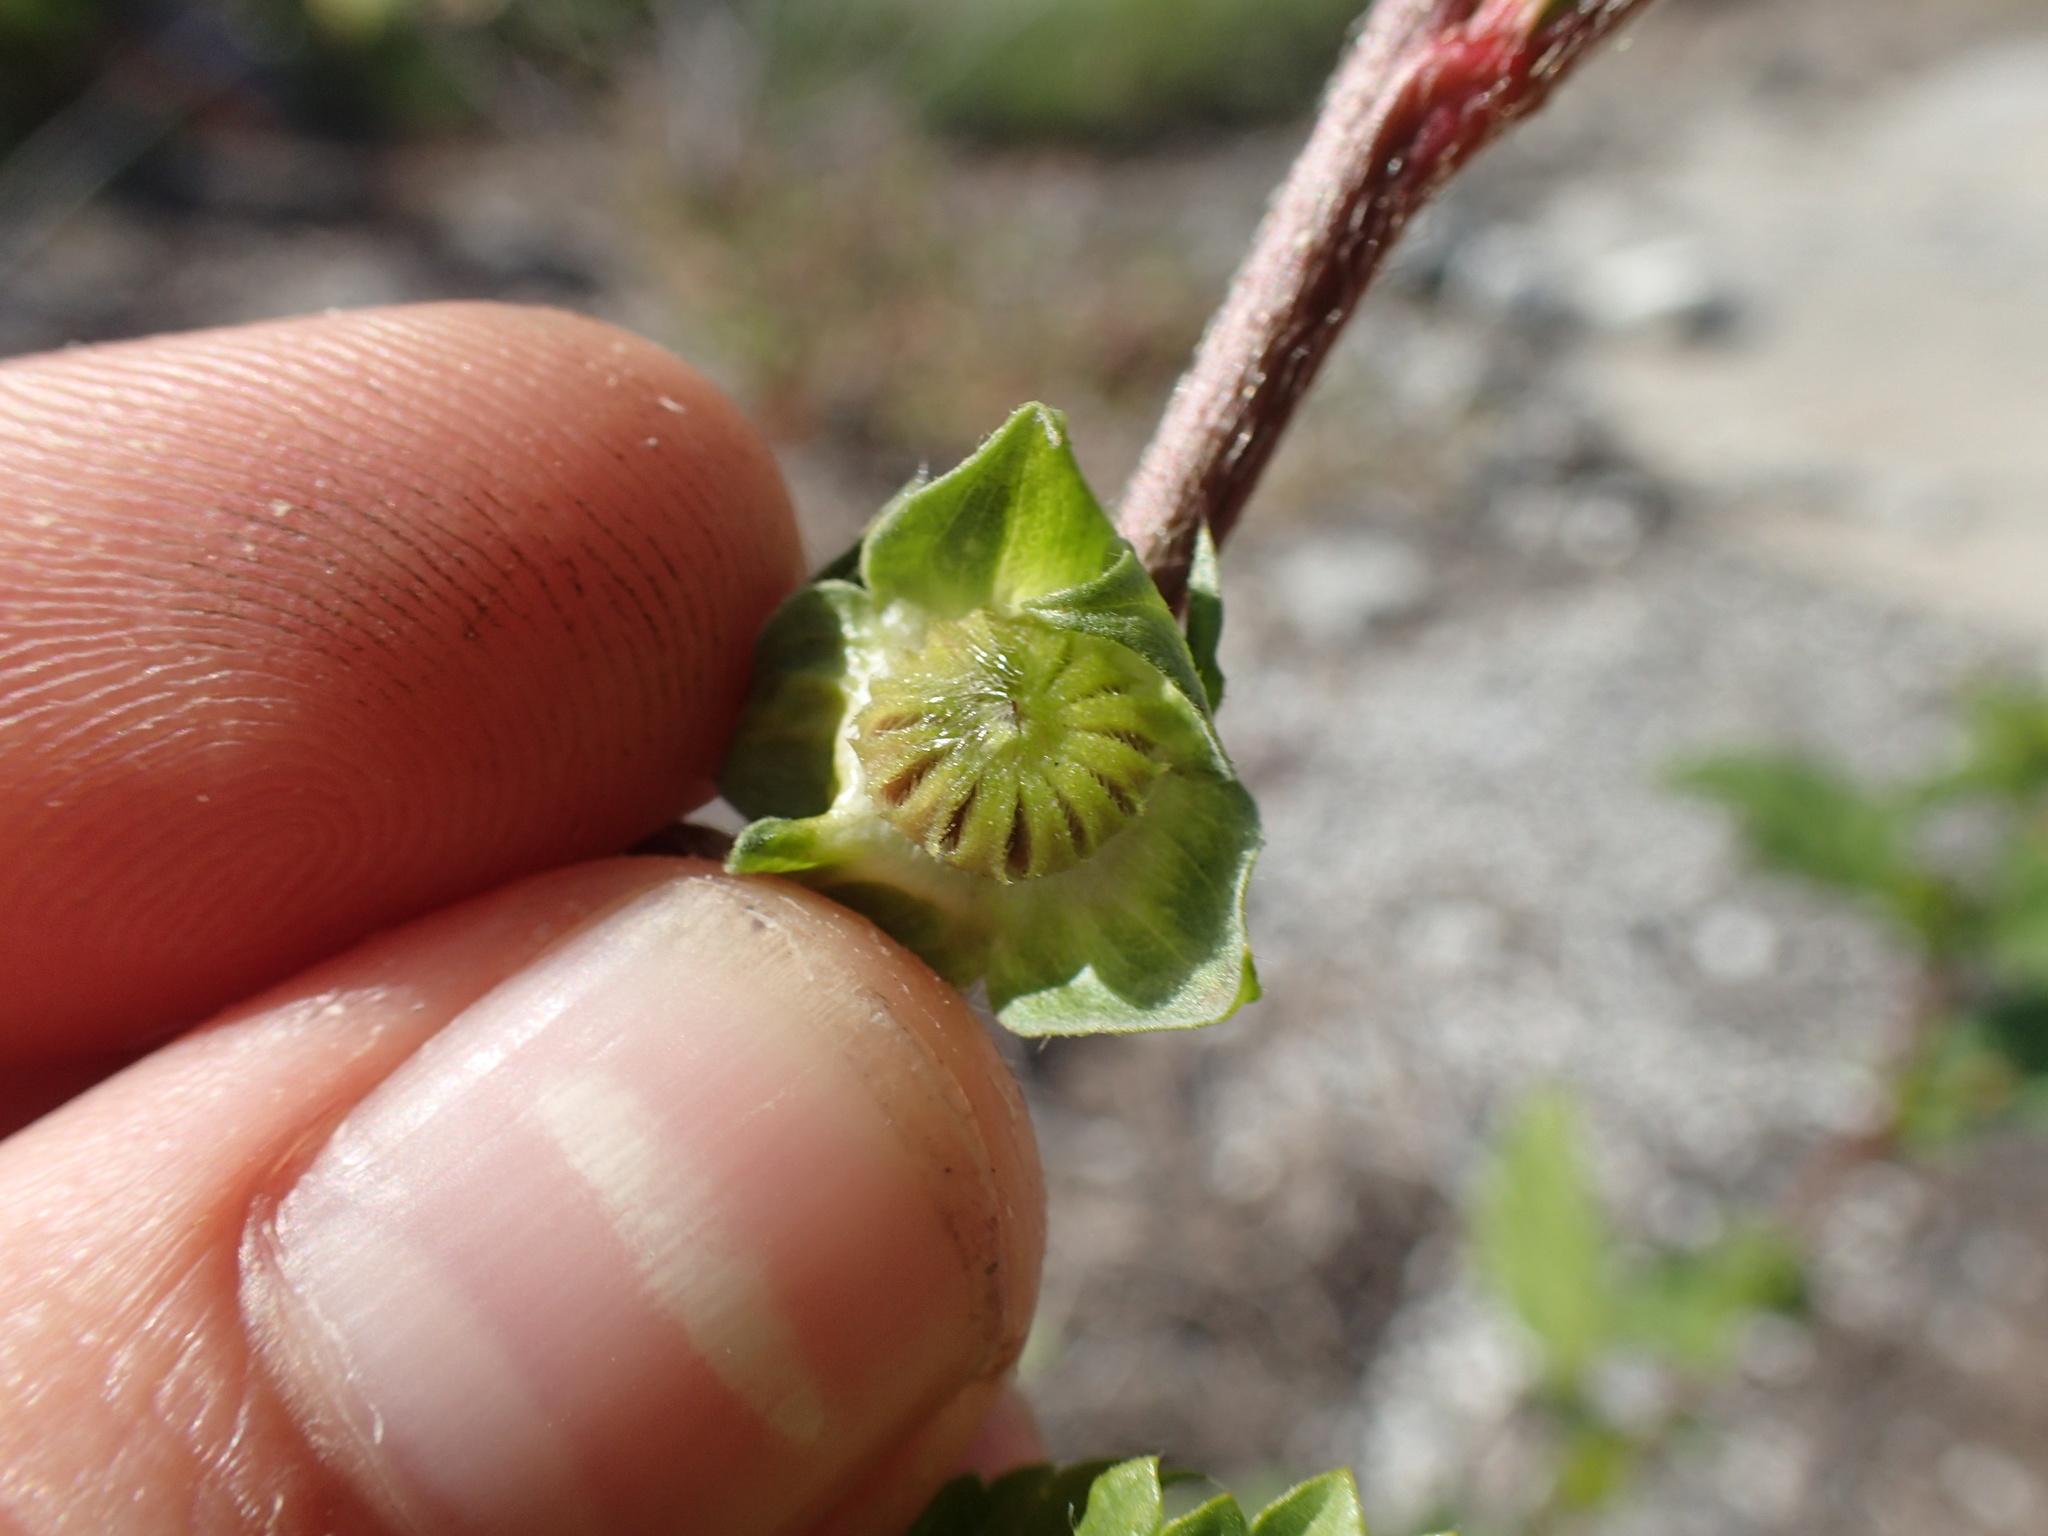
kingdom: Plantae
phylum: Tracheophyta
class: Magnoliopsida
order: Malvales
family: Malvaceae
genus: Malvastrum
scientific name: Malvastrum coromandelianum
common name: Threelobe false mallow
